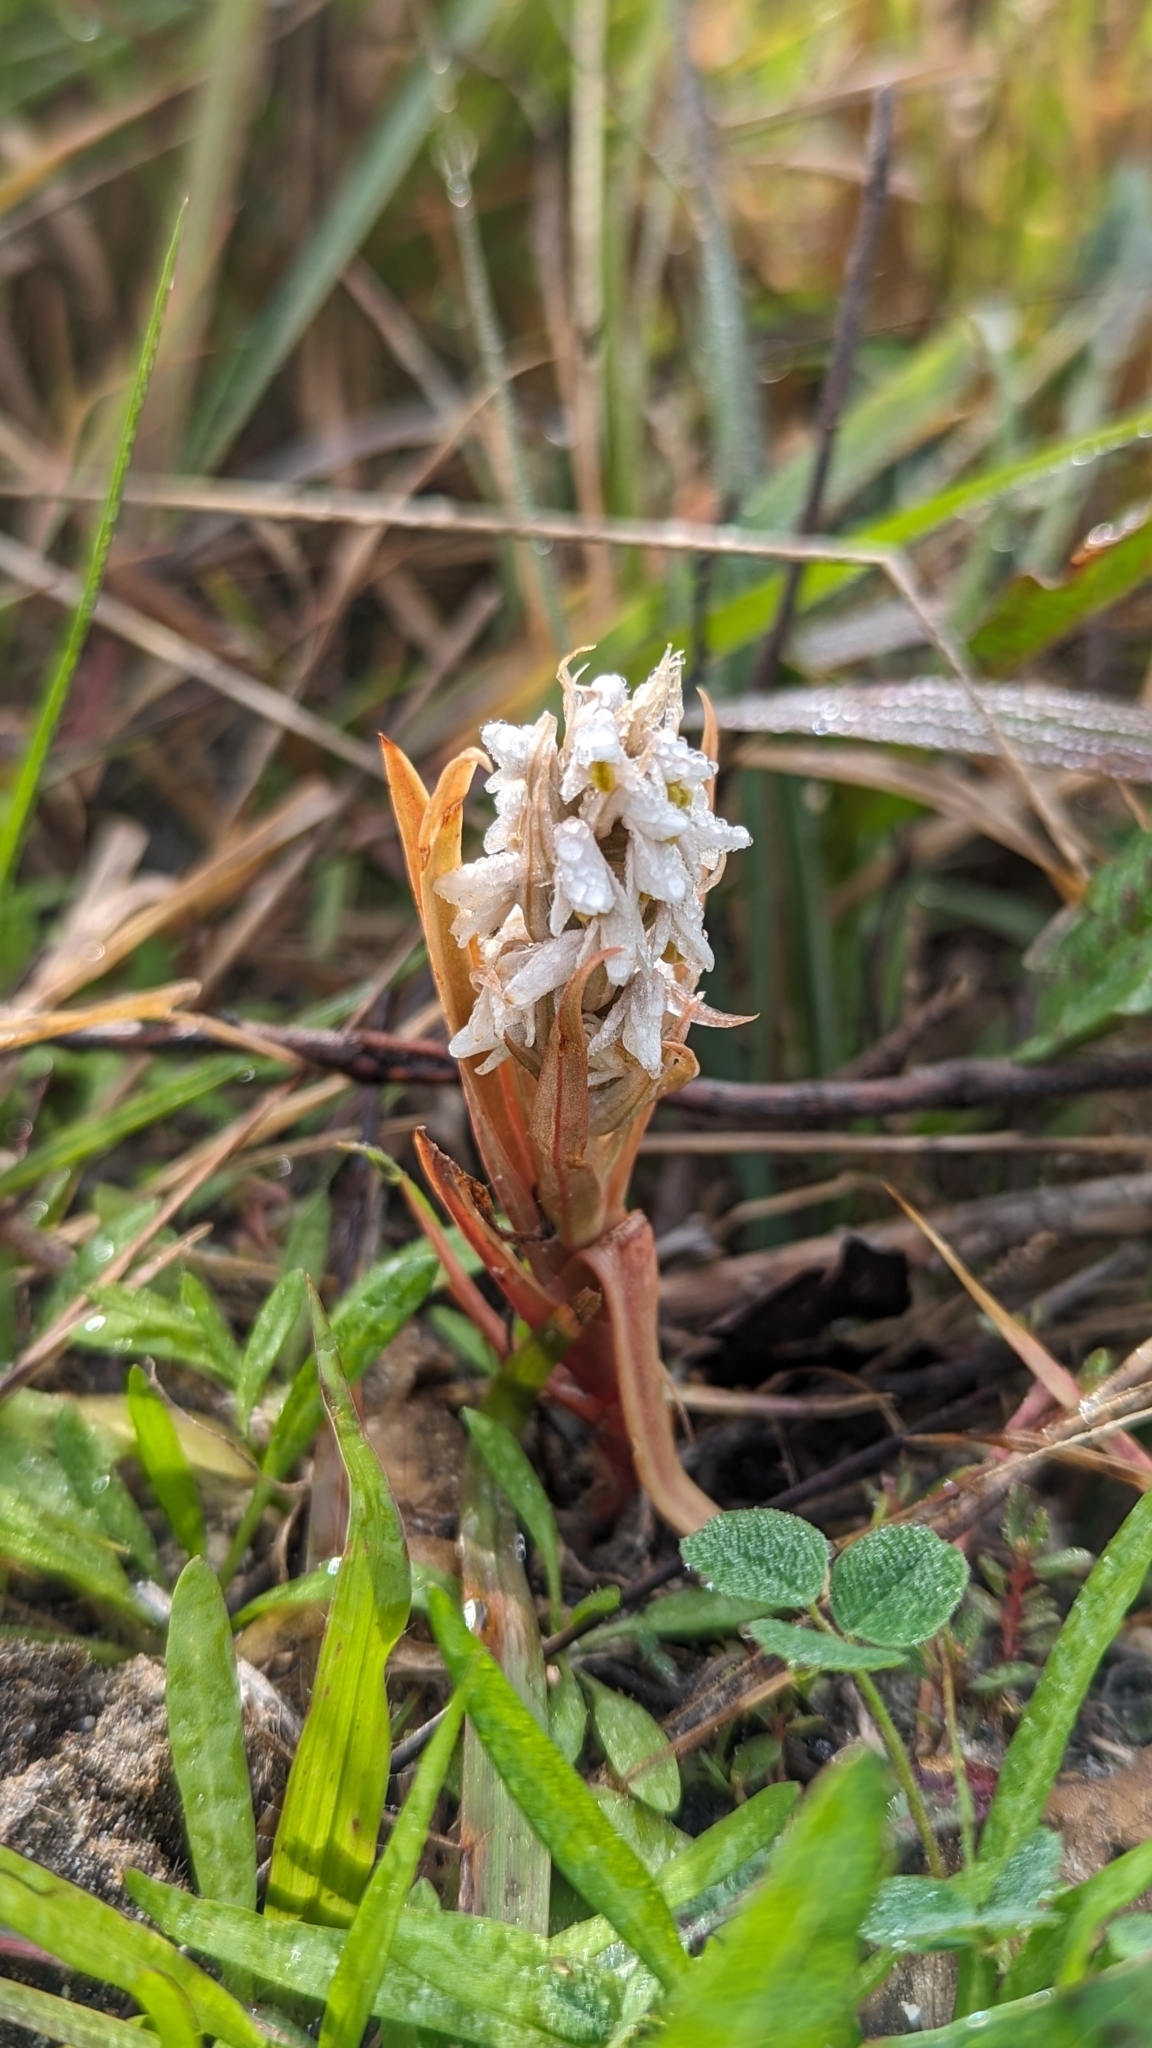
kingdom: Plantae
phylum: Tracheophyta
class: Liliopsida
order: Asparagales
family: Orchidaceae
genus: Zeuxine
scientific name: Zeuxine strateumatica
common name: Soldier's orchid
